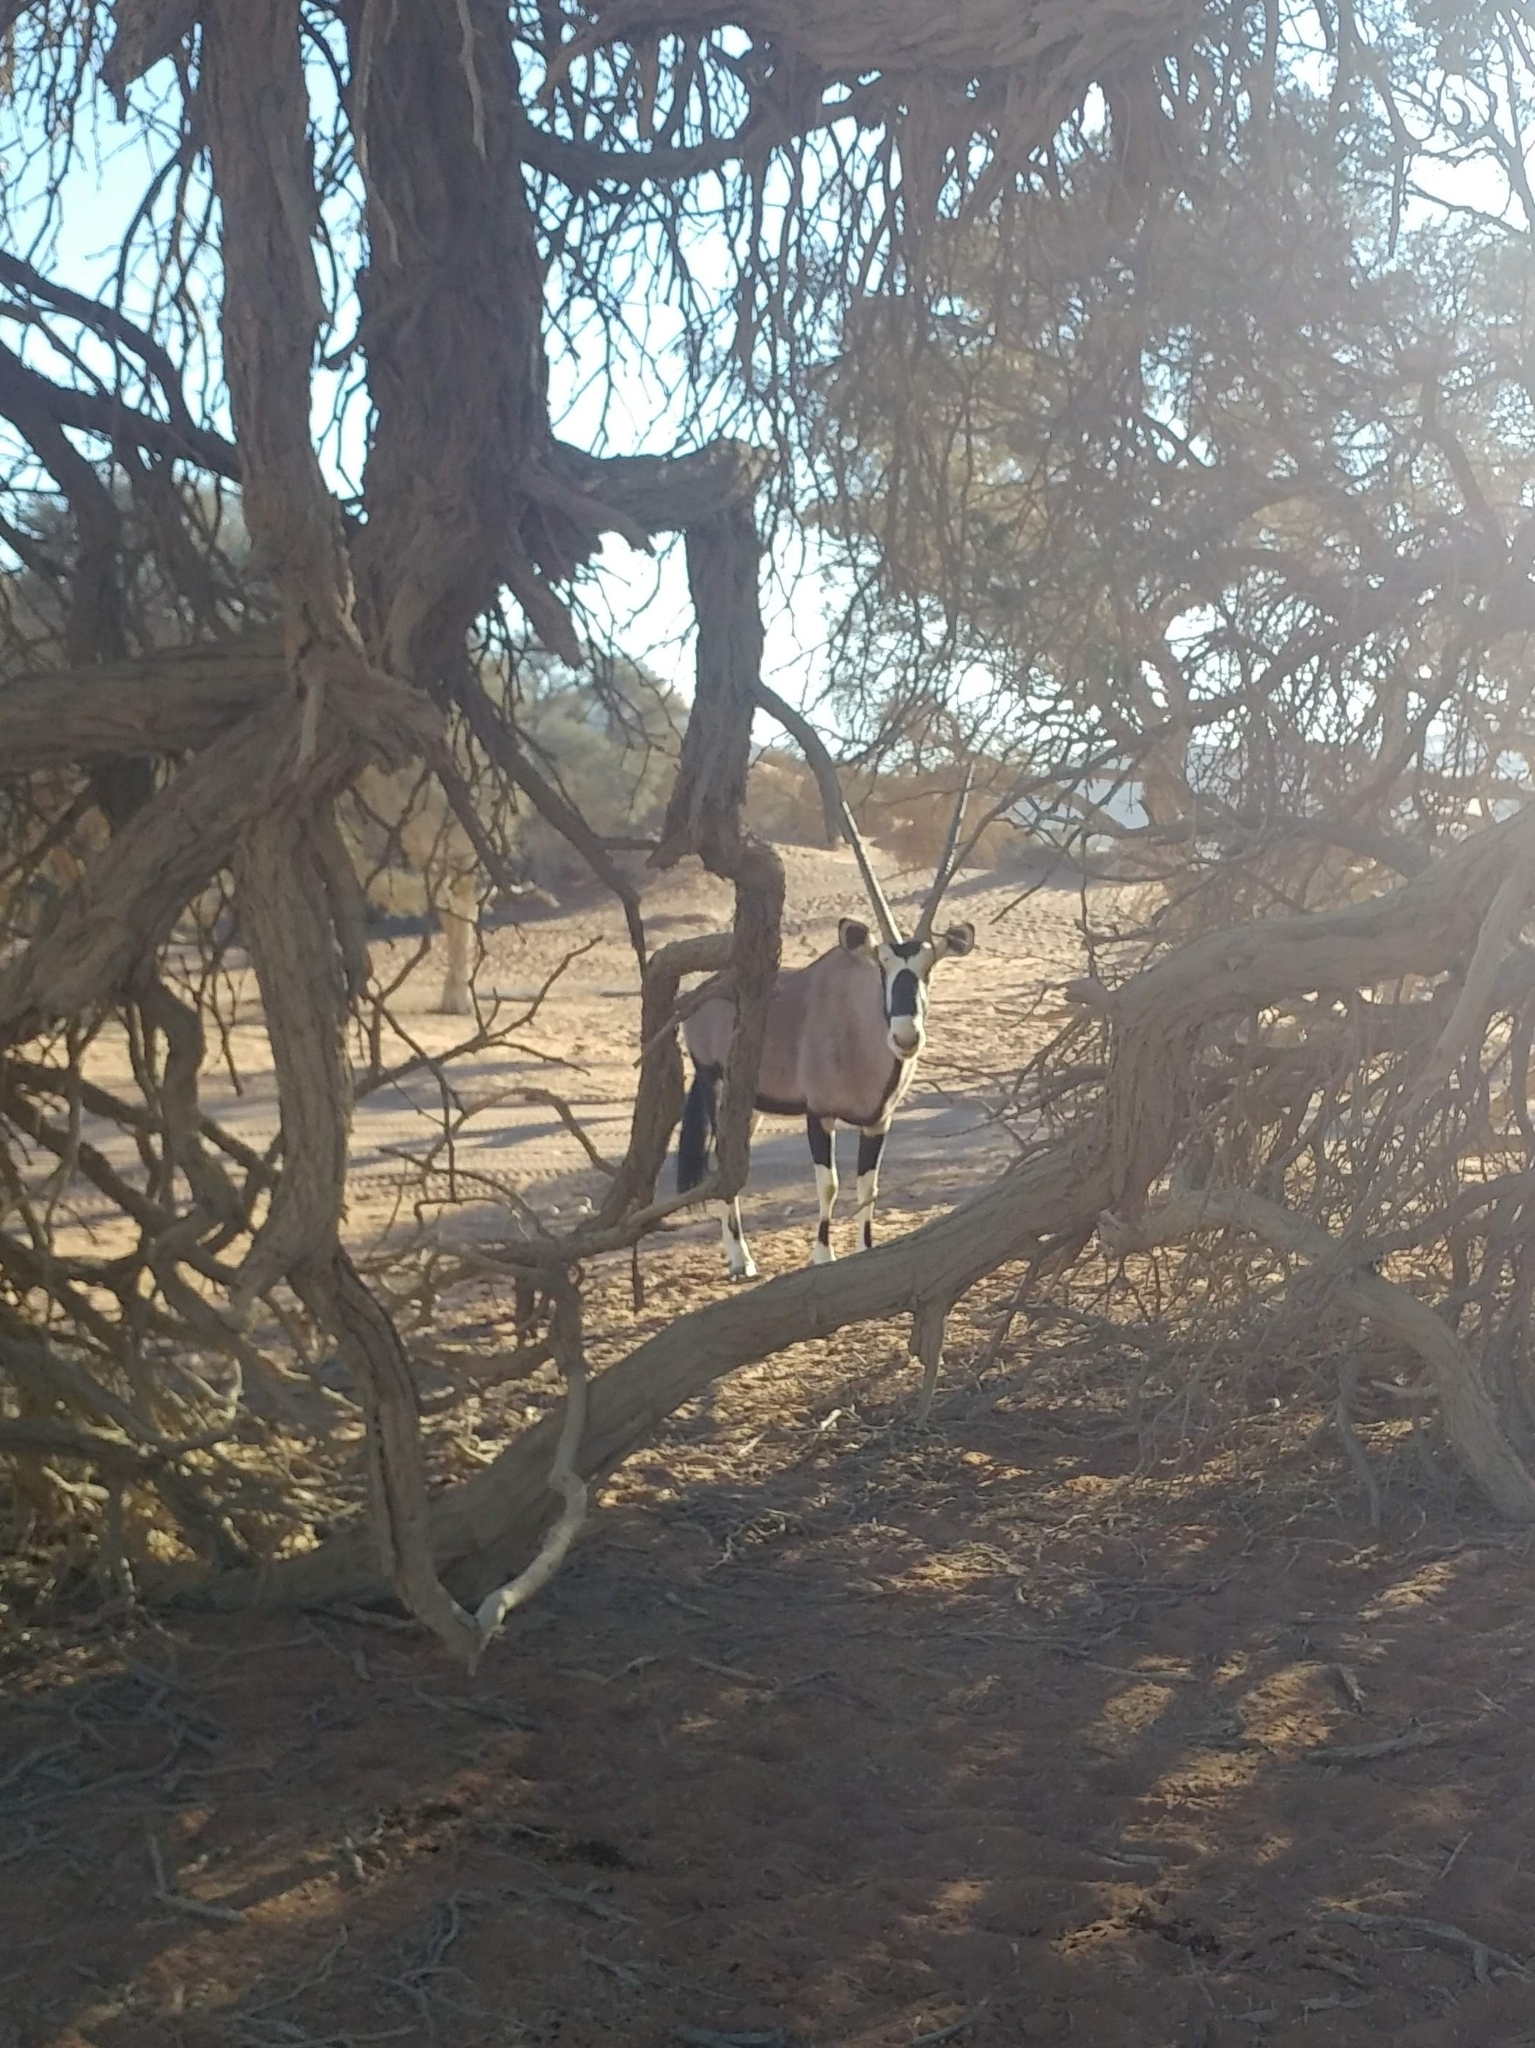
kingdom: Animalia
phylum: Chordata
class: Mammalia
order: Artiodactyla
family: Bovidae
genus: Oryx
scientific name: Oryx gazella
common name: Gemsbok
